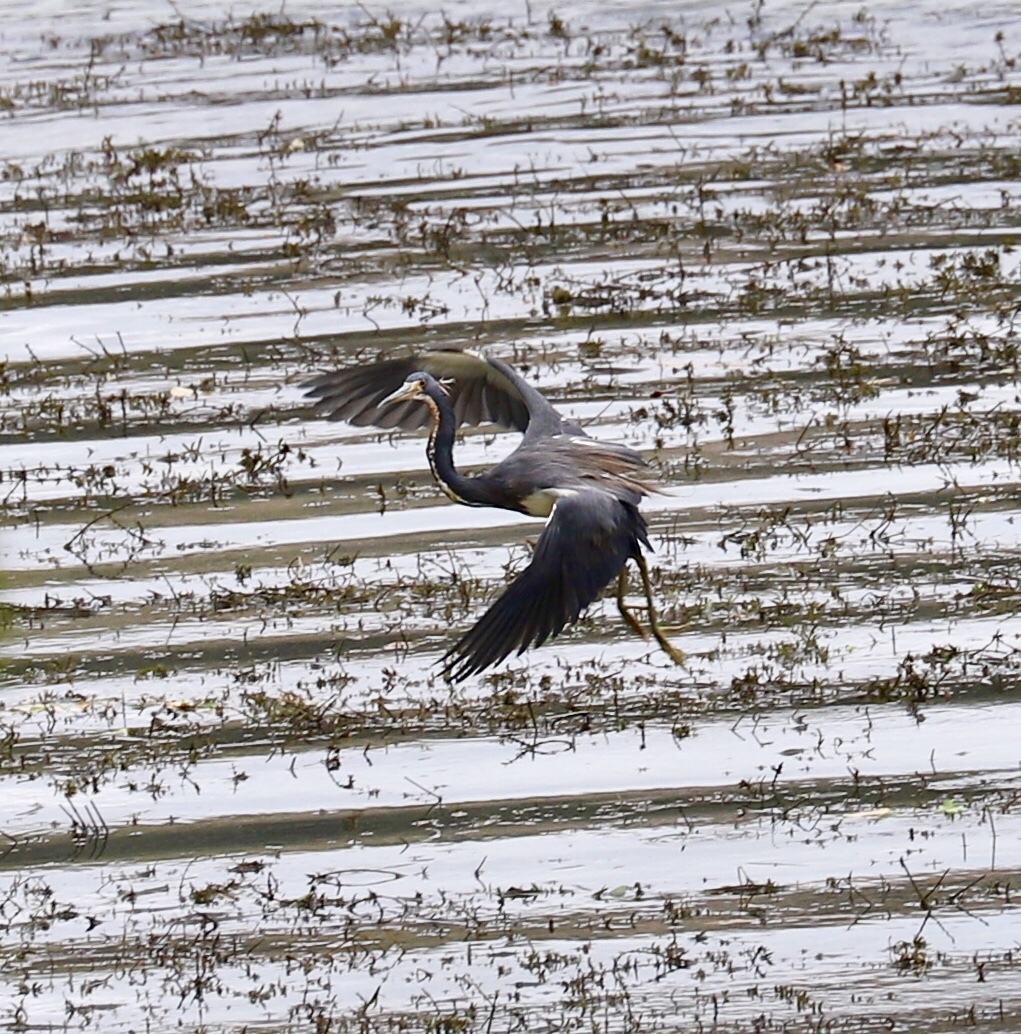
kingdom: Animalia
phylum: Chordata
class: Aves
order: Pelecaniformes
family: Ardeidae
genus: Egretta
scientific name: Egretta tricolor
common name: Tricolored heron
